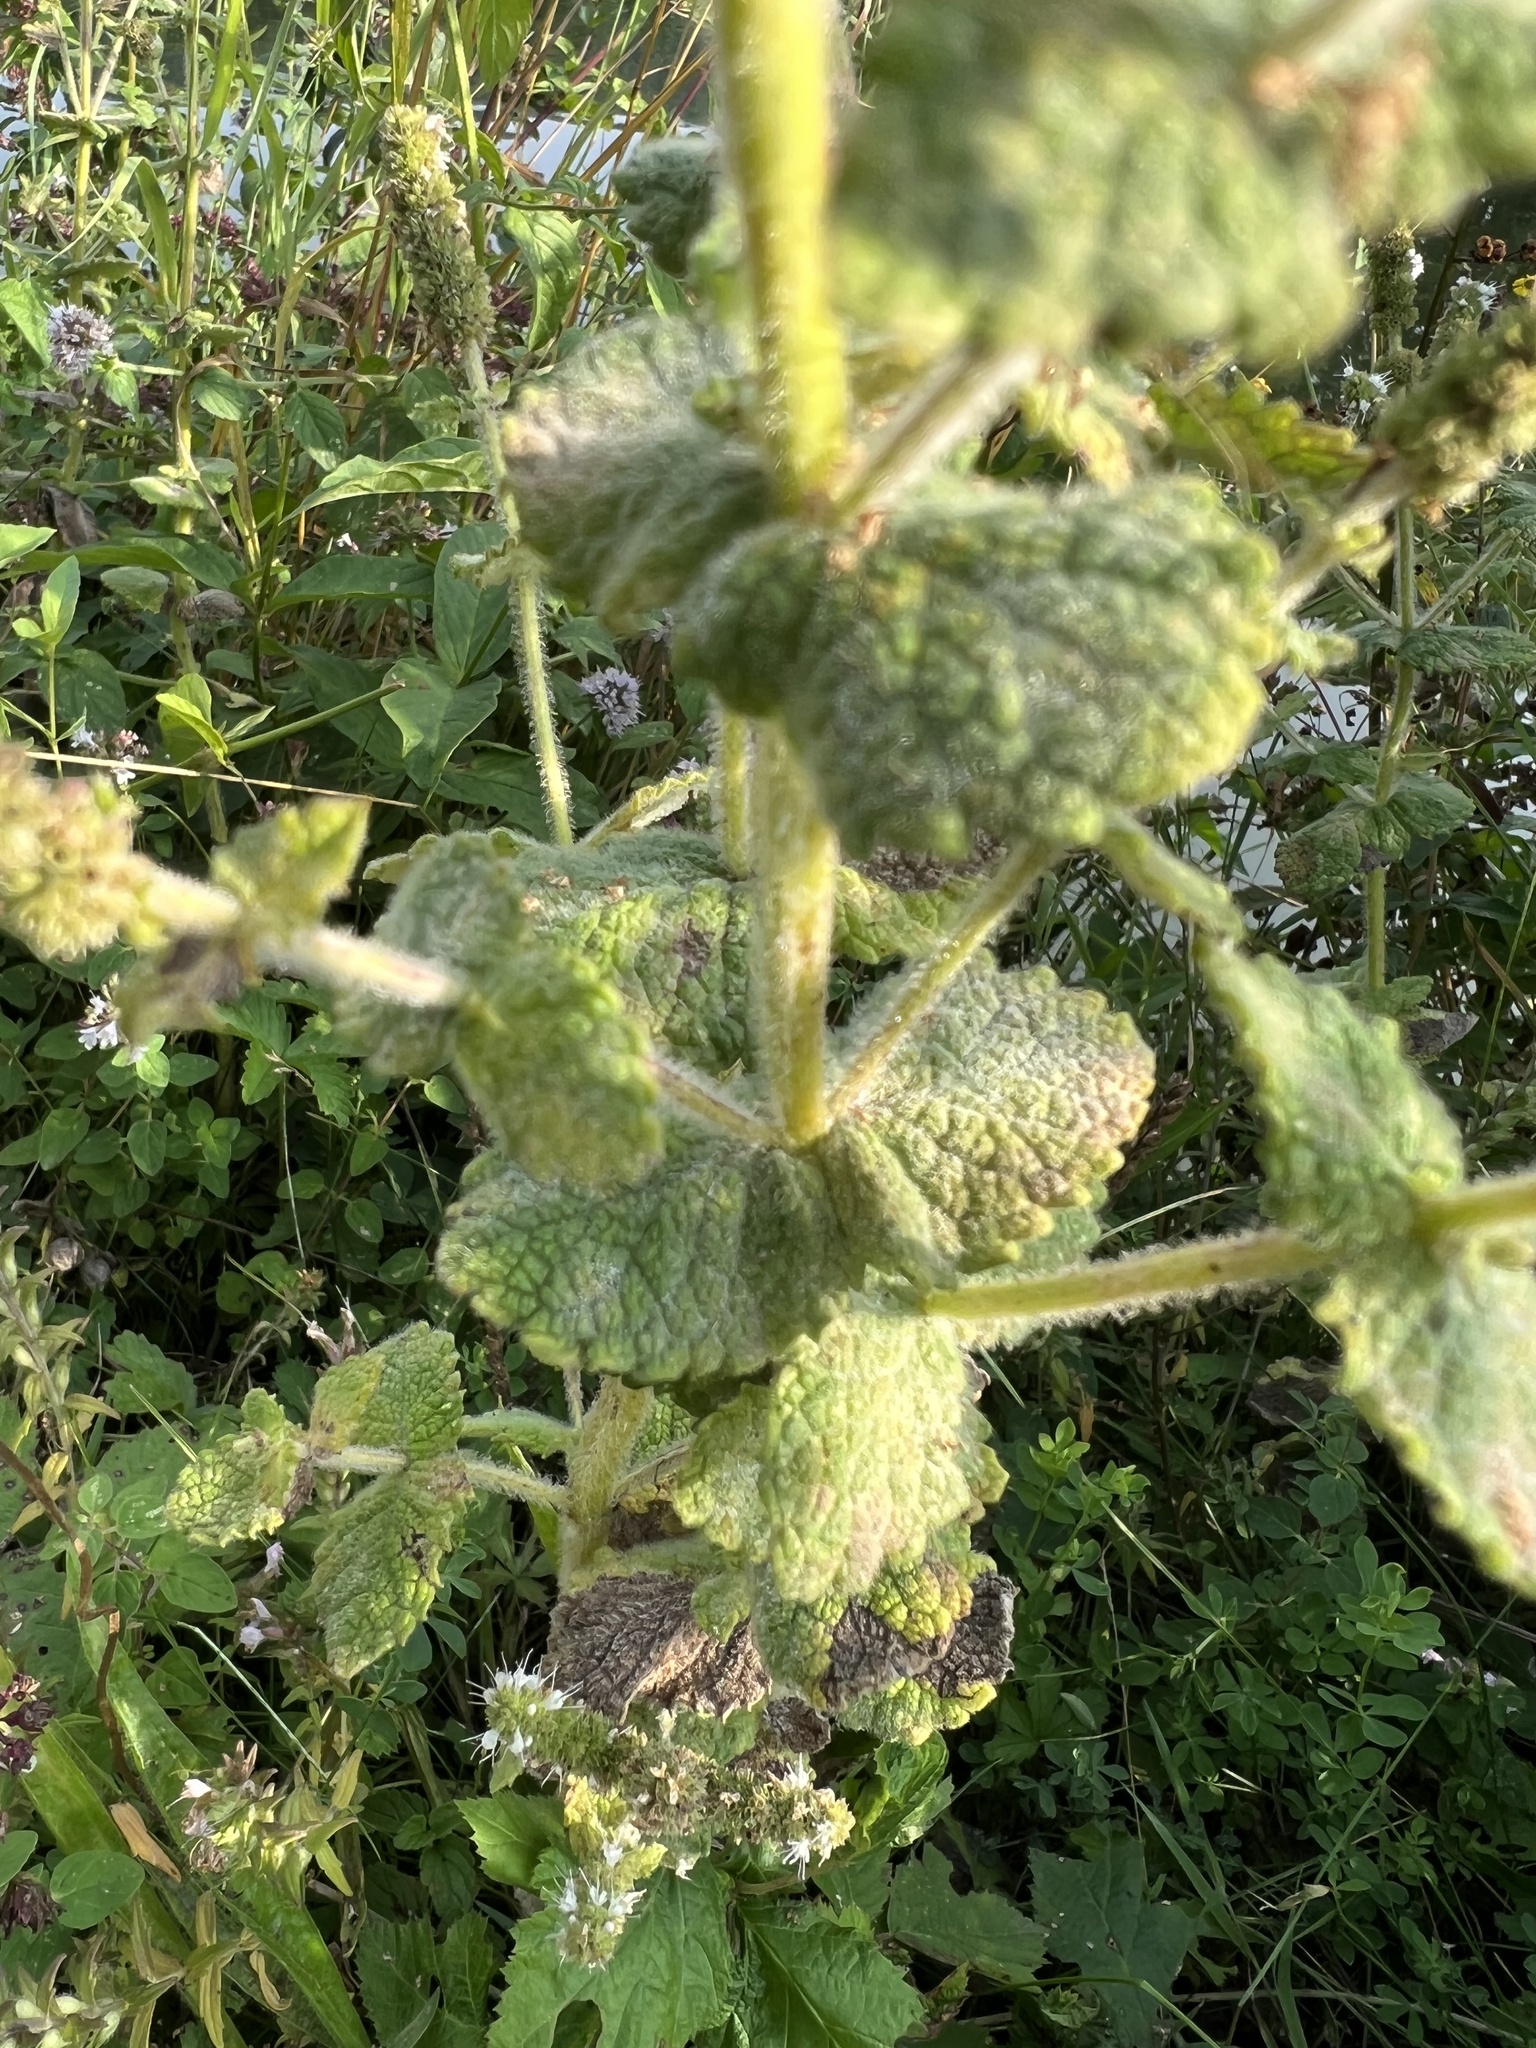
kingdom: Plantae
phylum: Tracheophyta
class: Magnoliopsida
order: Lamiales
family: Lamiaceae
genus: Mentha
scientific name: Mentha suaveolens
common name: Apple mint
